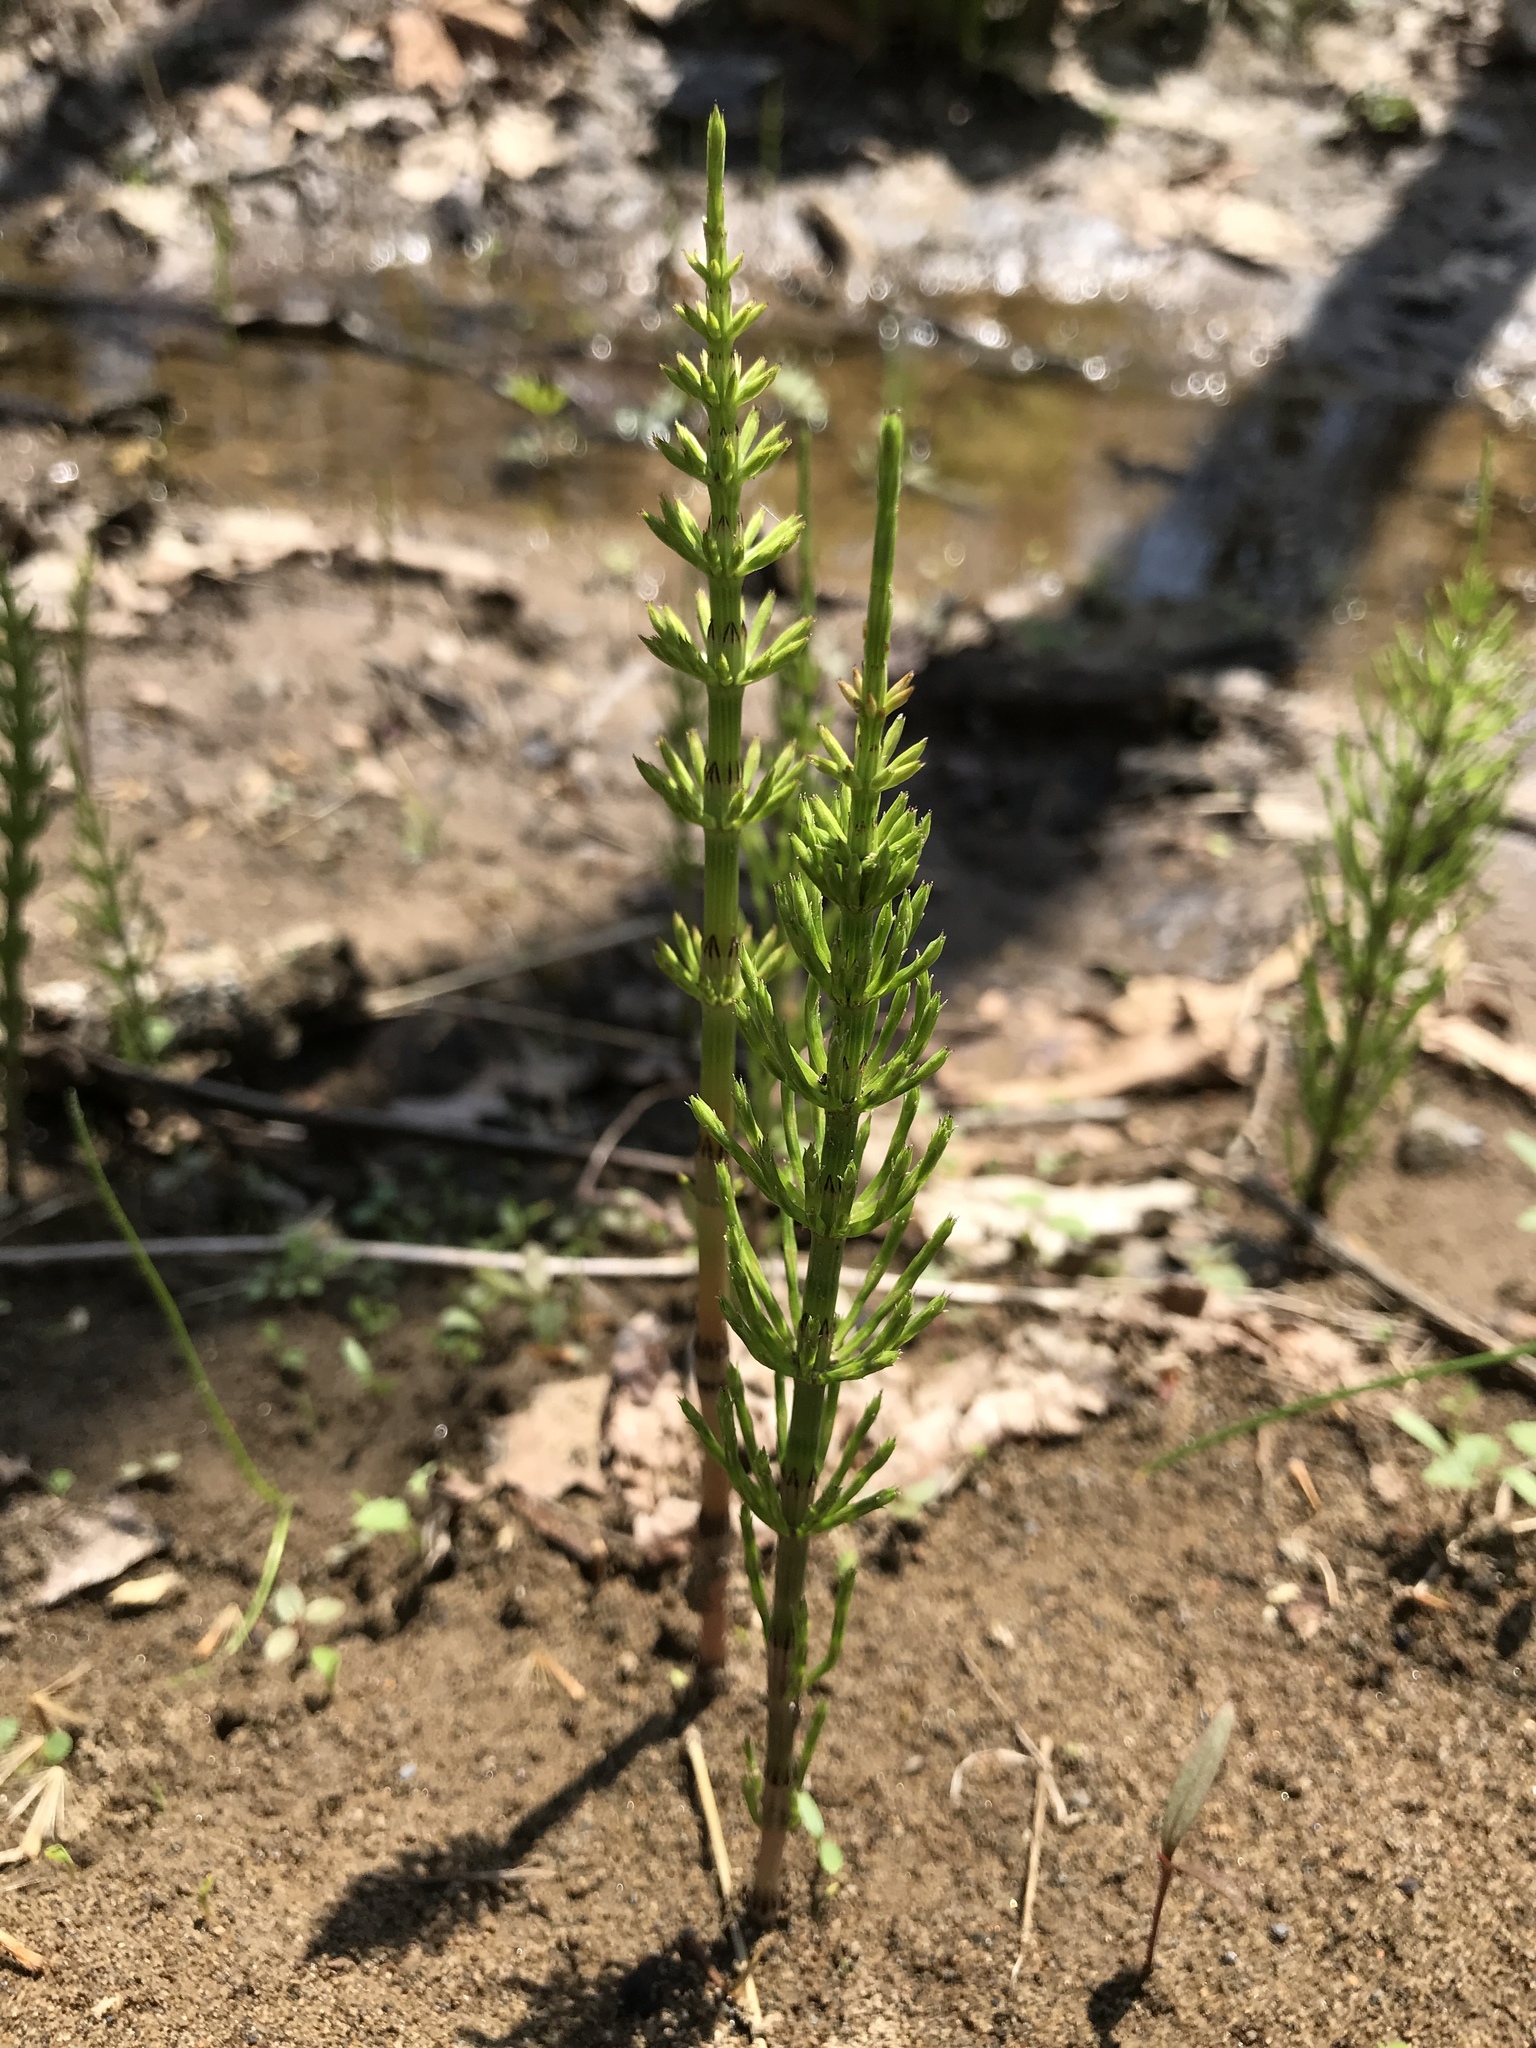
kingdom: Plantae
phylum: Tracheophyta
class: Polypodiopsida
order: Equisetales
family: Equisetaceae
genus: Equisetum
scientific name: Equisetum arvense
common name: Field horsetail
